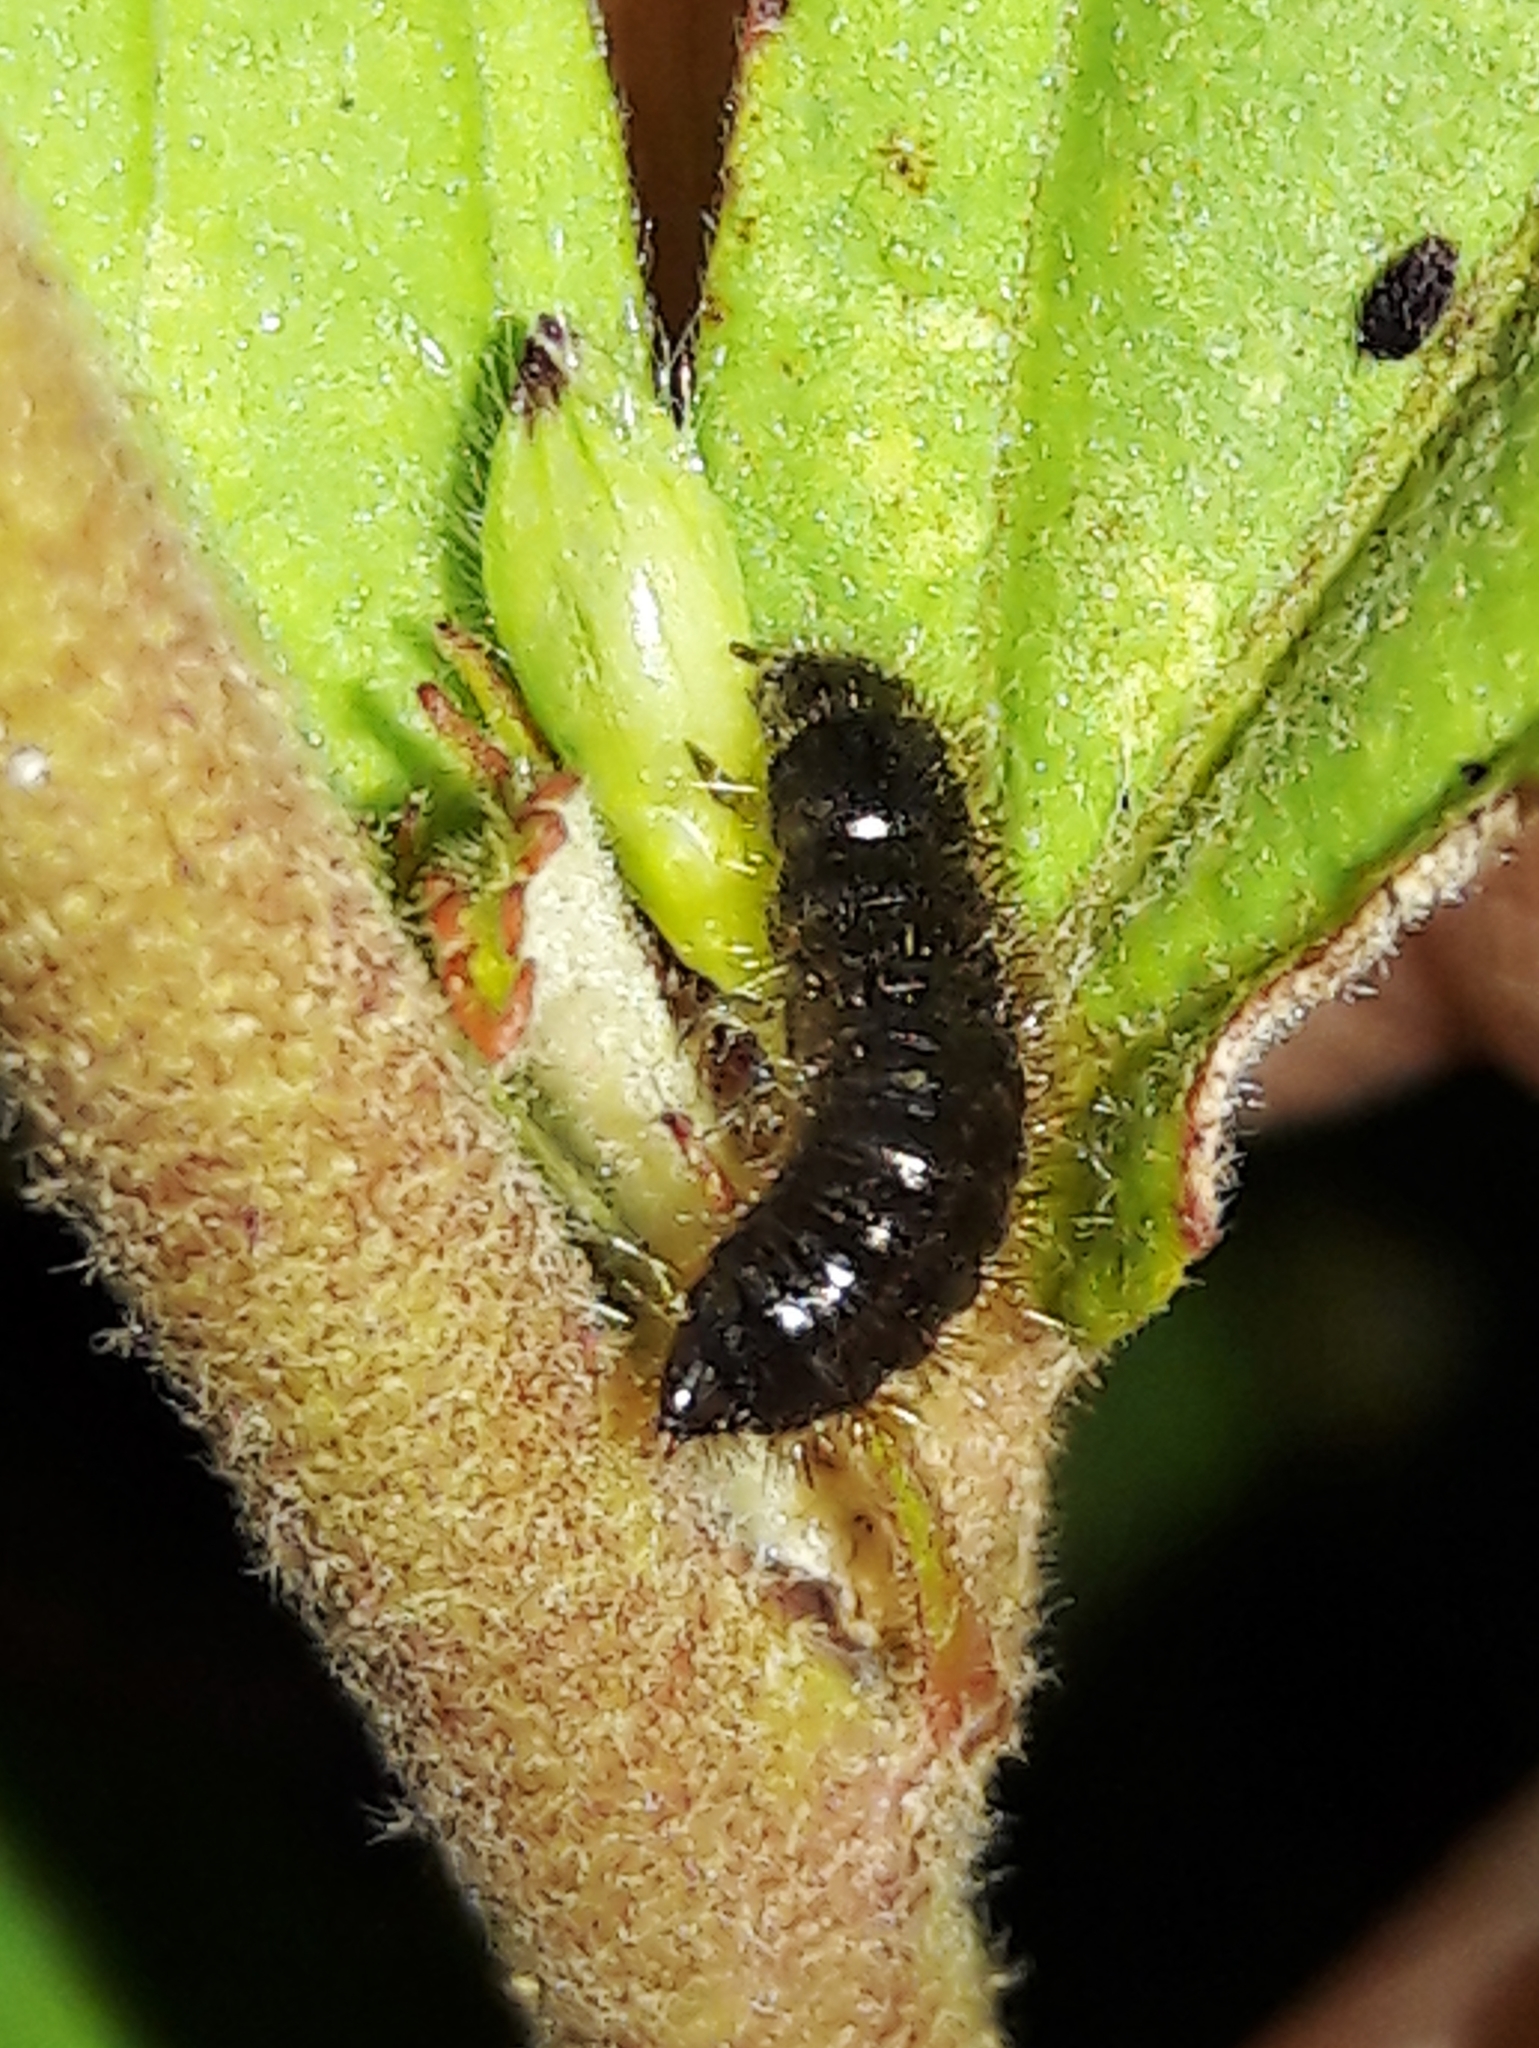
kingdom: Animalia
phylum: Arthropoda
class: Insecta
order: Coleoptera
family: Tenebrionidae
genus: Lagria
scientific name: Lagria villosa
